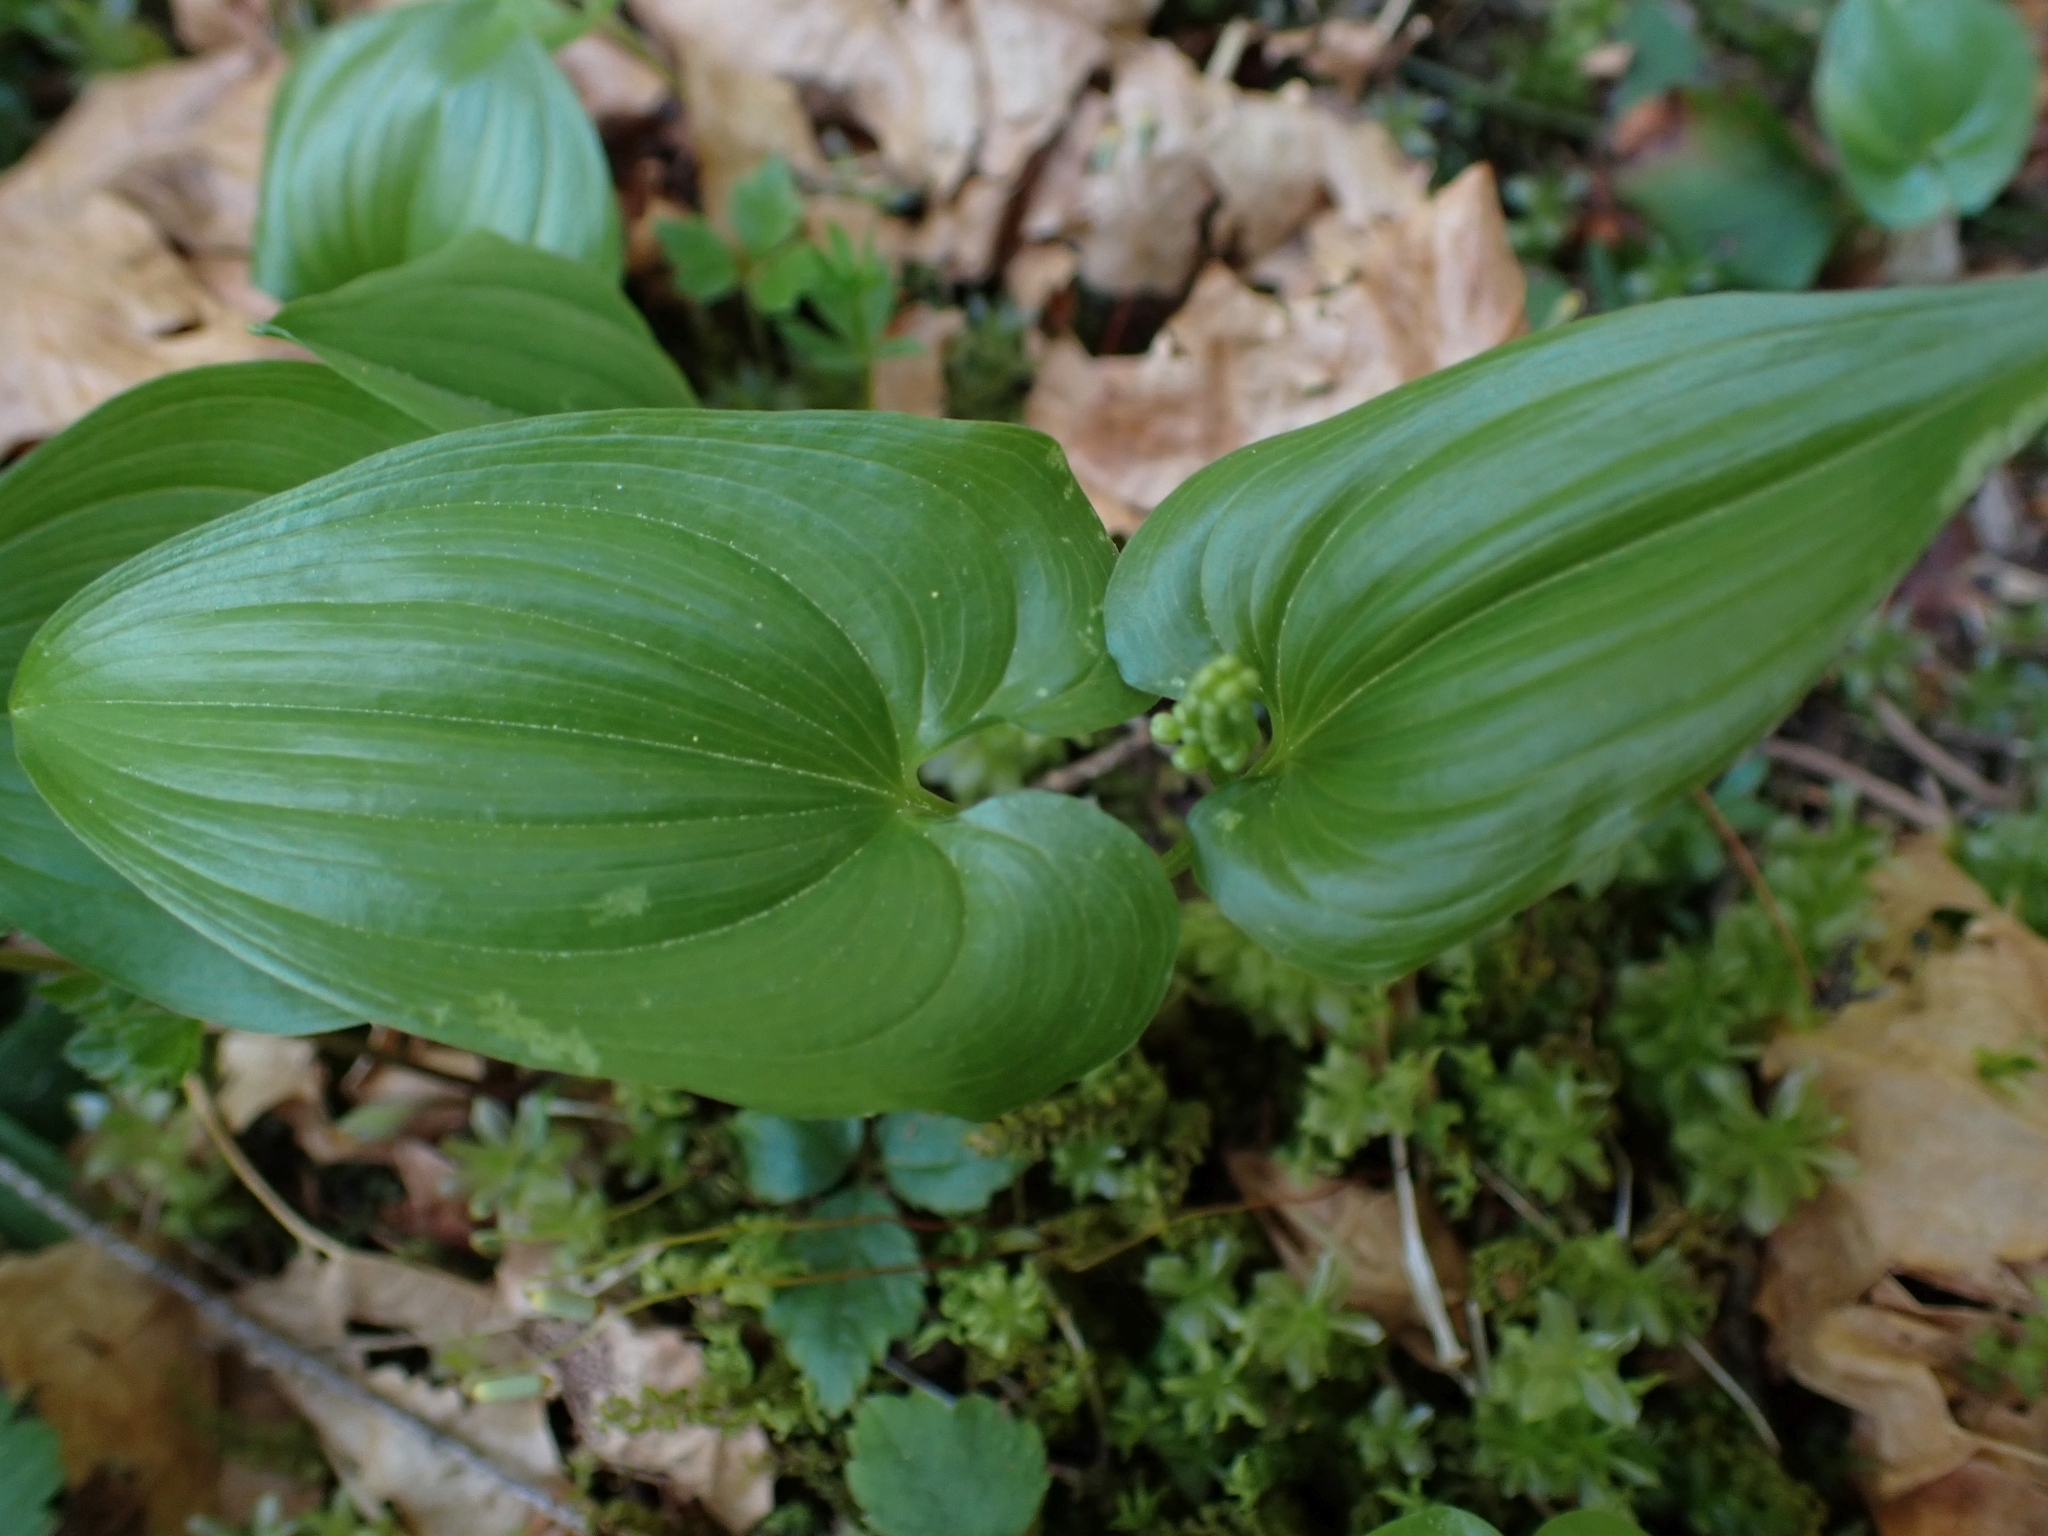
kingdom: Plantae
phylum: Tracheophyta
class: Liliopsida
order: Asparagales
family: Asparagaceae
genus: Maianthemum
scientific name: Maianthemum dilatatum
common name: False lily-of-the-valley
